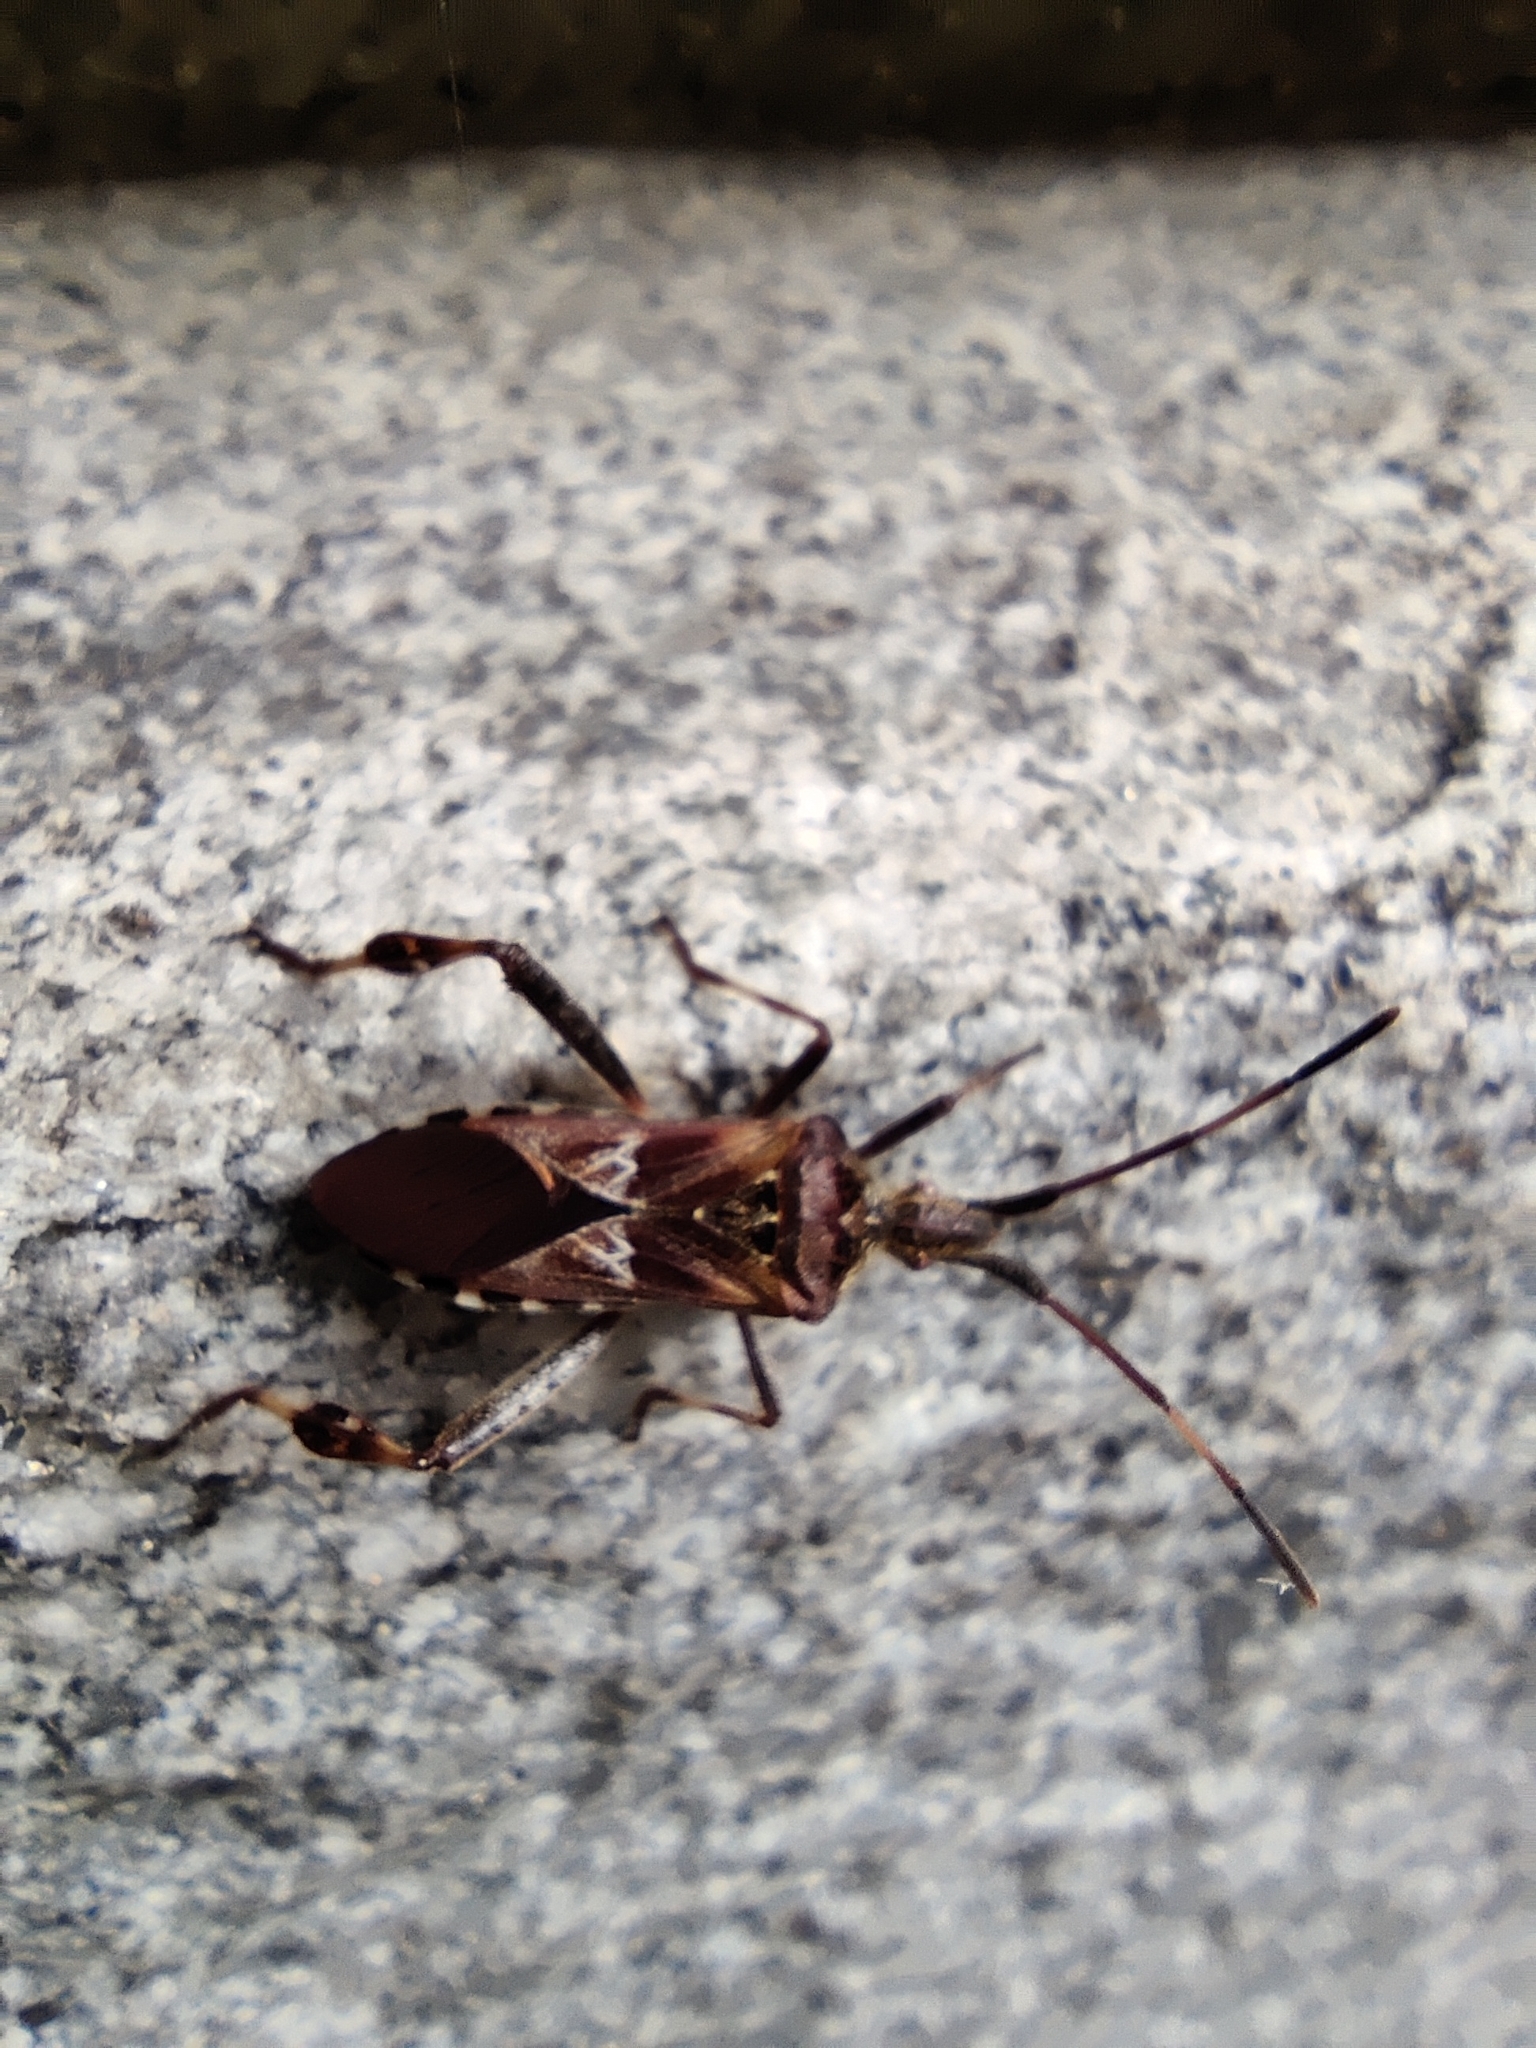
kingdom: Animalia
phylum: Arthropoda
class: Insecta
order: Hemiptera
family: Coreidae
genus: Leptoglossus
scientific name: Leptoglossus occidentalis
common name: Western conifer-seed bug
